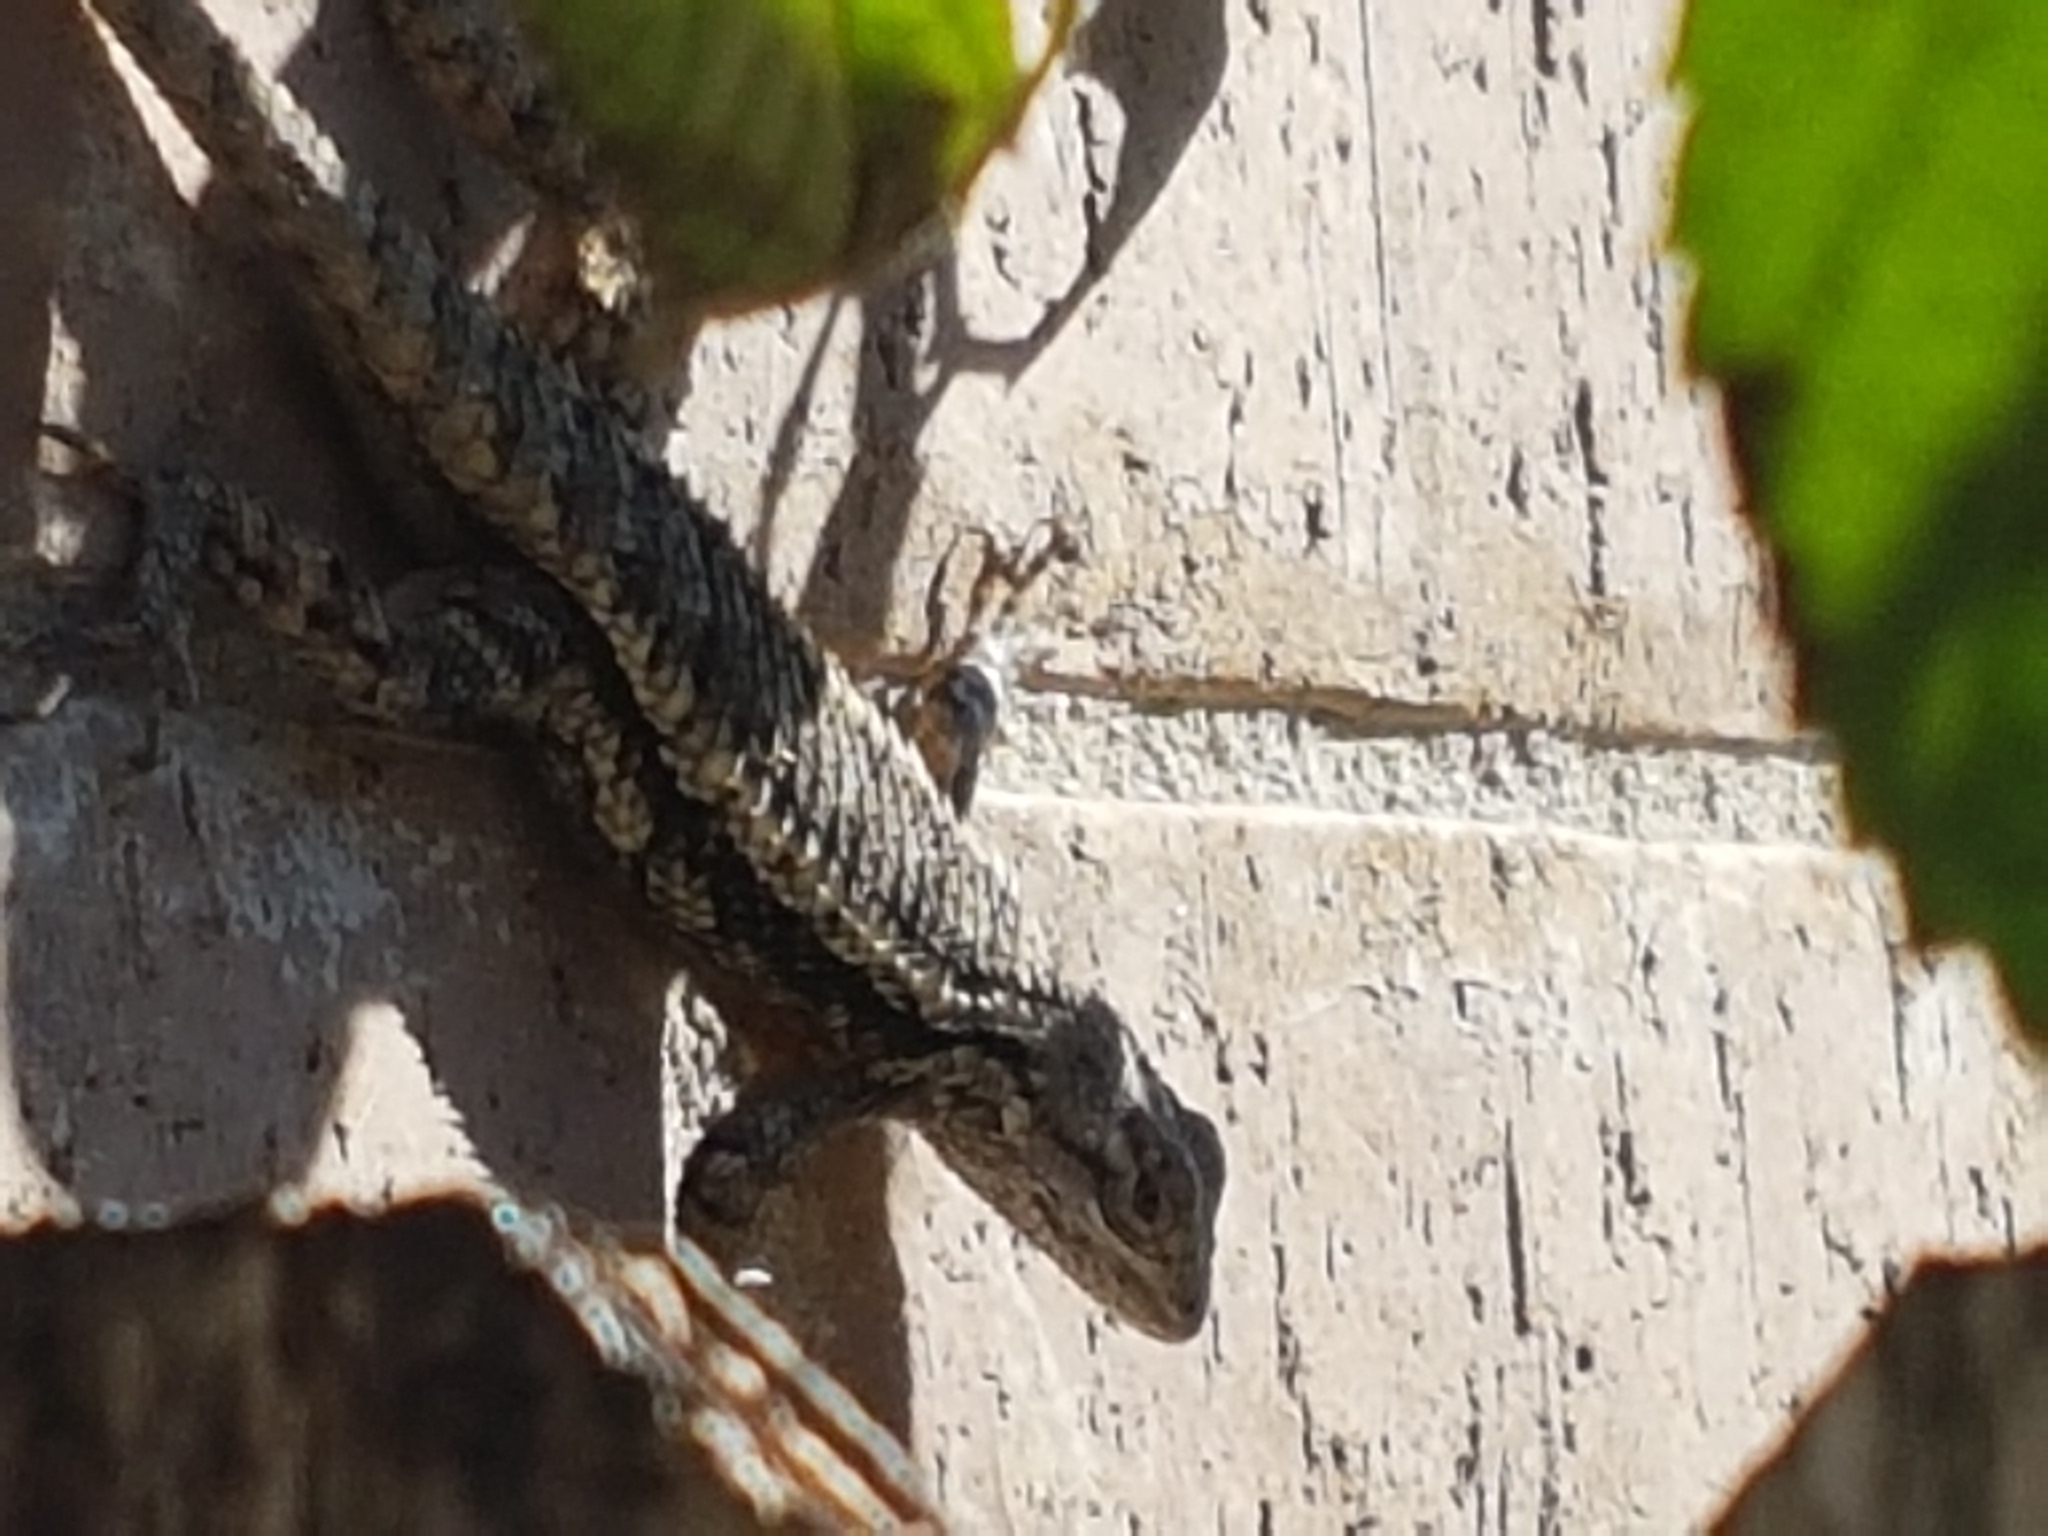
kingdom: Animalia
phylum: Chordata
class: Squamata
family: Phrynosomatidae
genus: Sceloporus
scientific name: Sceloporus olivaceus
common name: Texas spiny lizard
